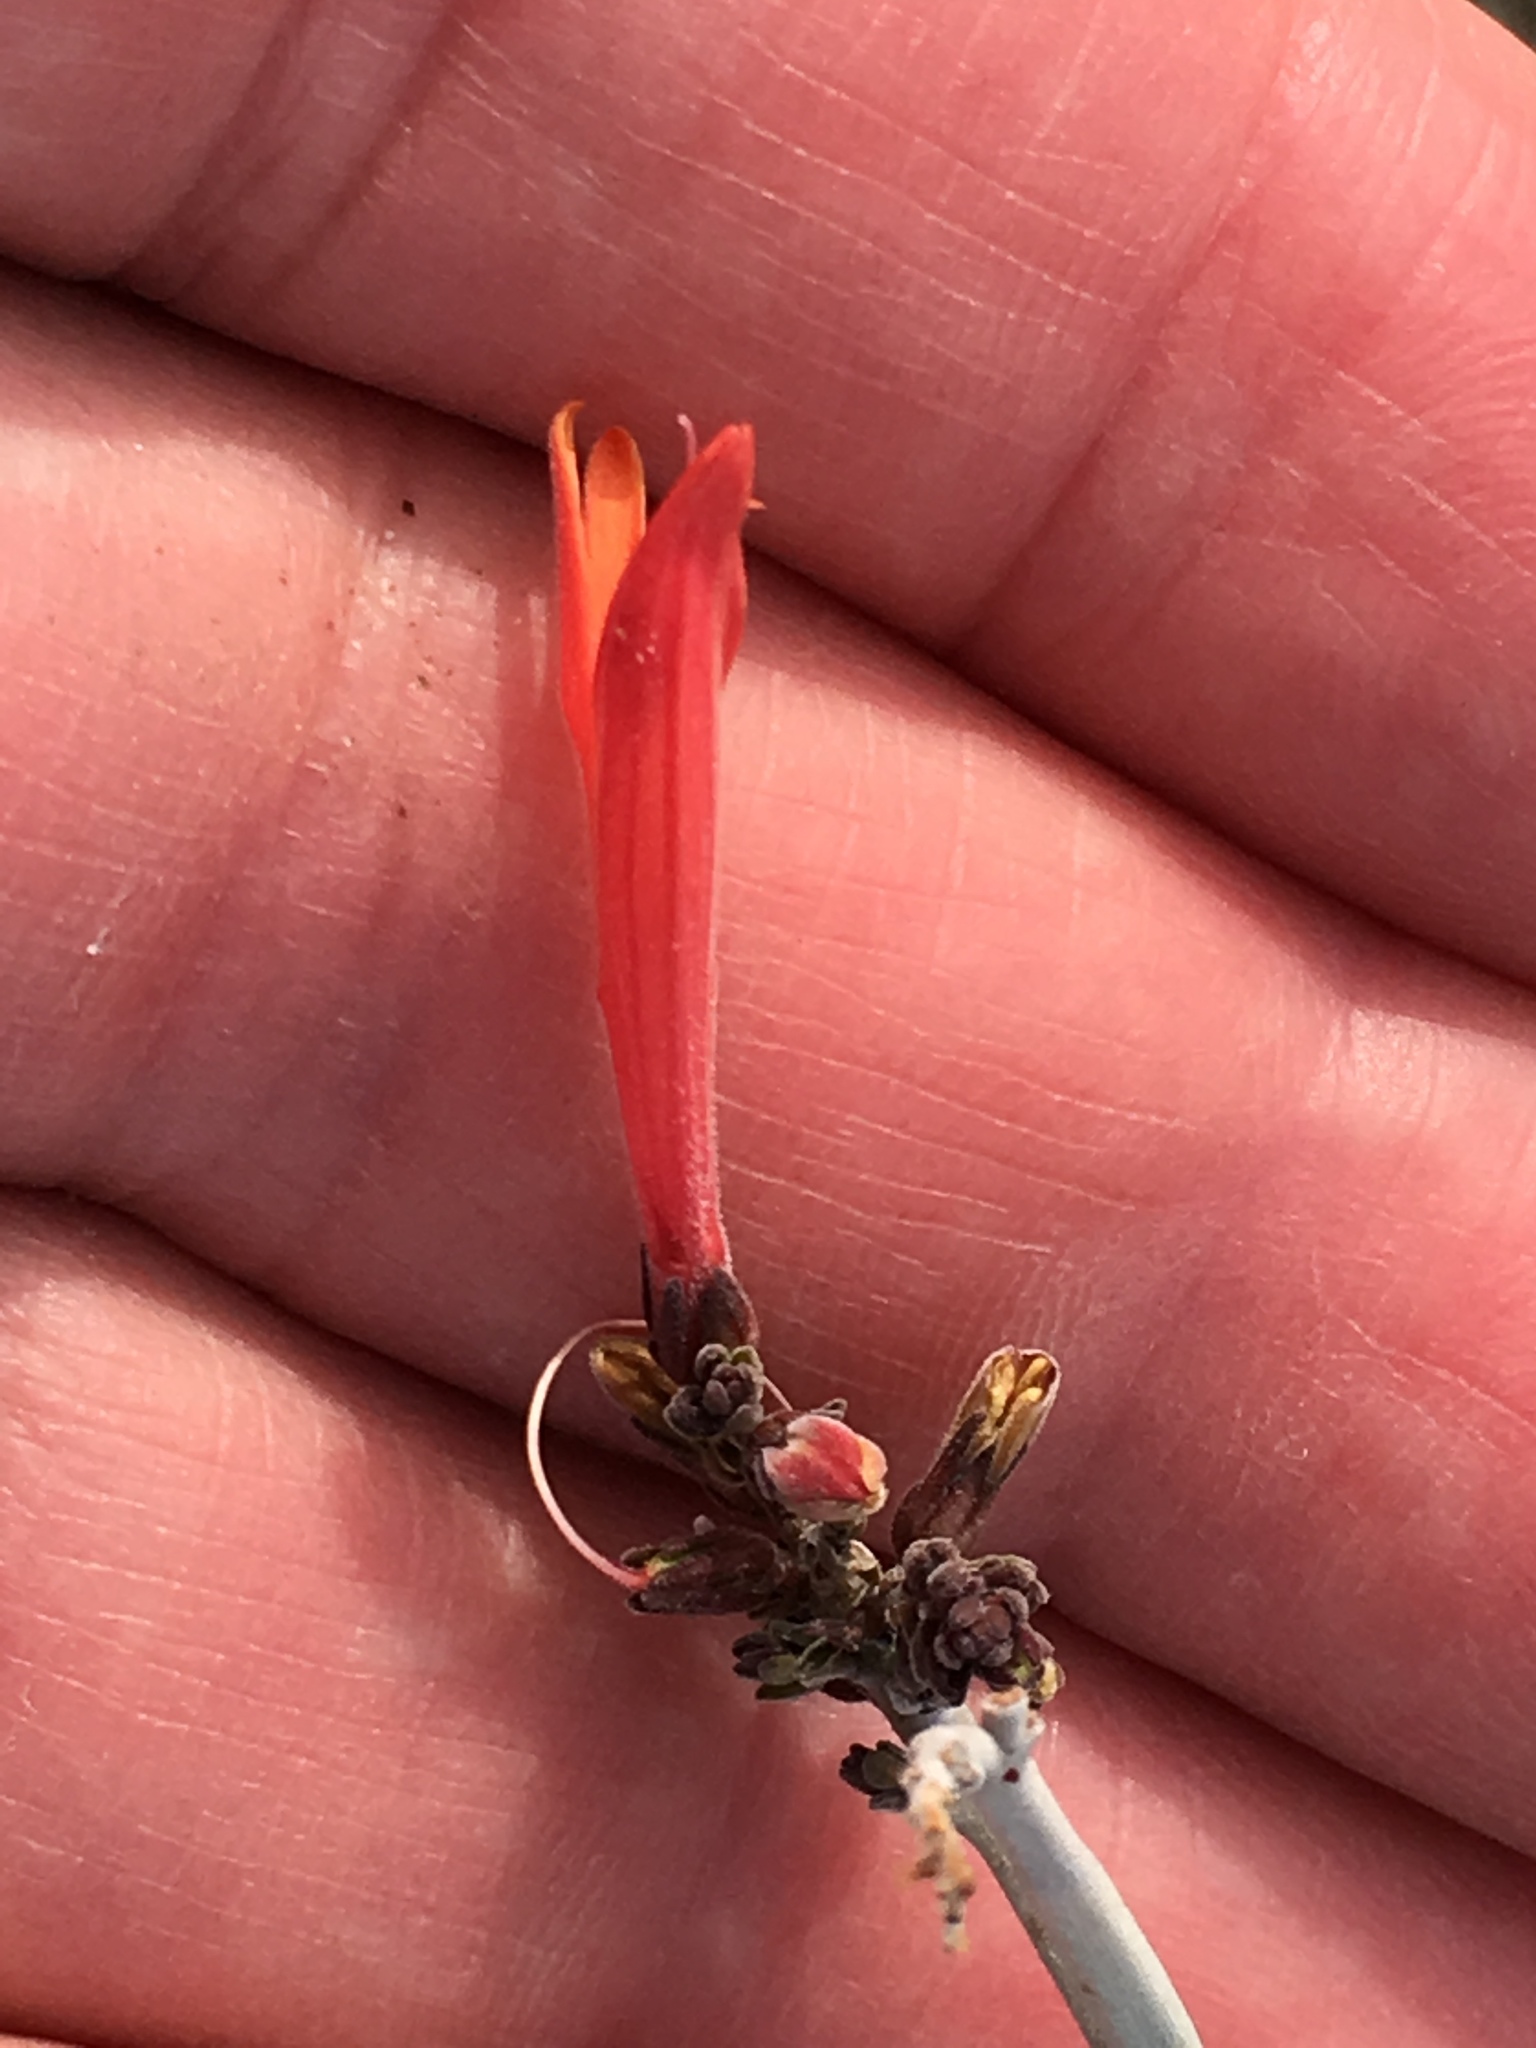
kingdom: Plantae
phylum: Tracheophyta
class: Magnoliopsida
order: Lamiales
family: Acanthaceae
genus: Justicia
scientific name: Justicia californica
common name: Chuparosa-honeysuckle
